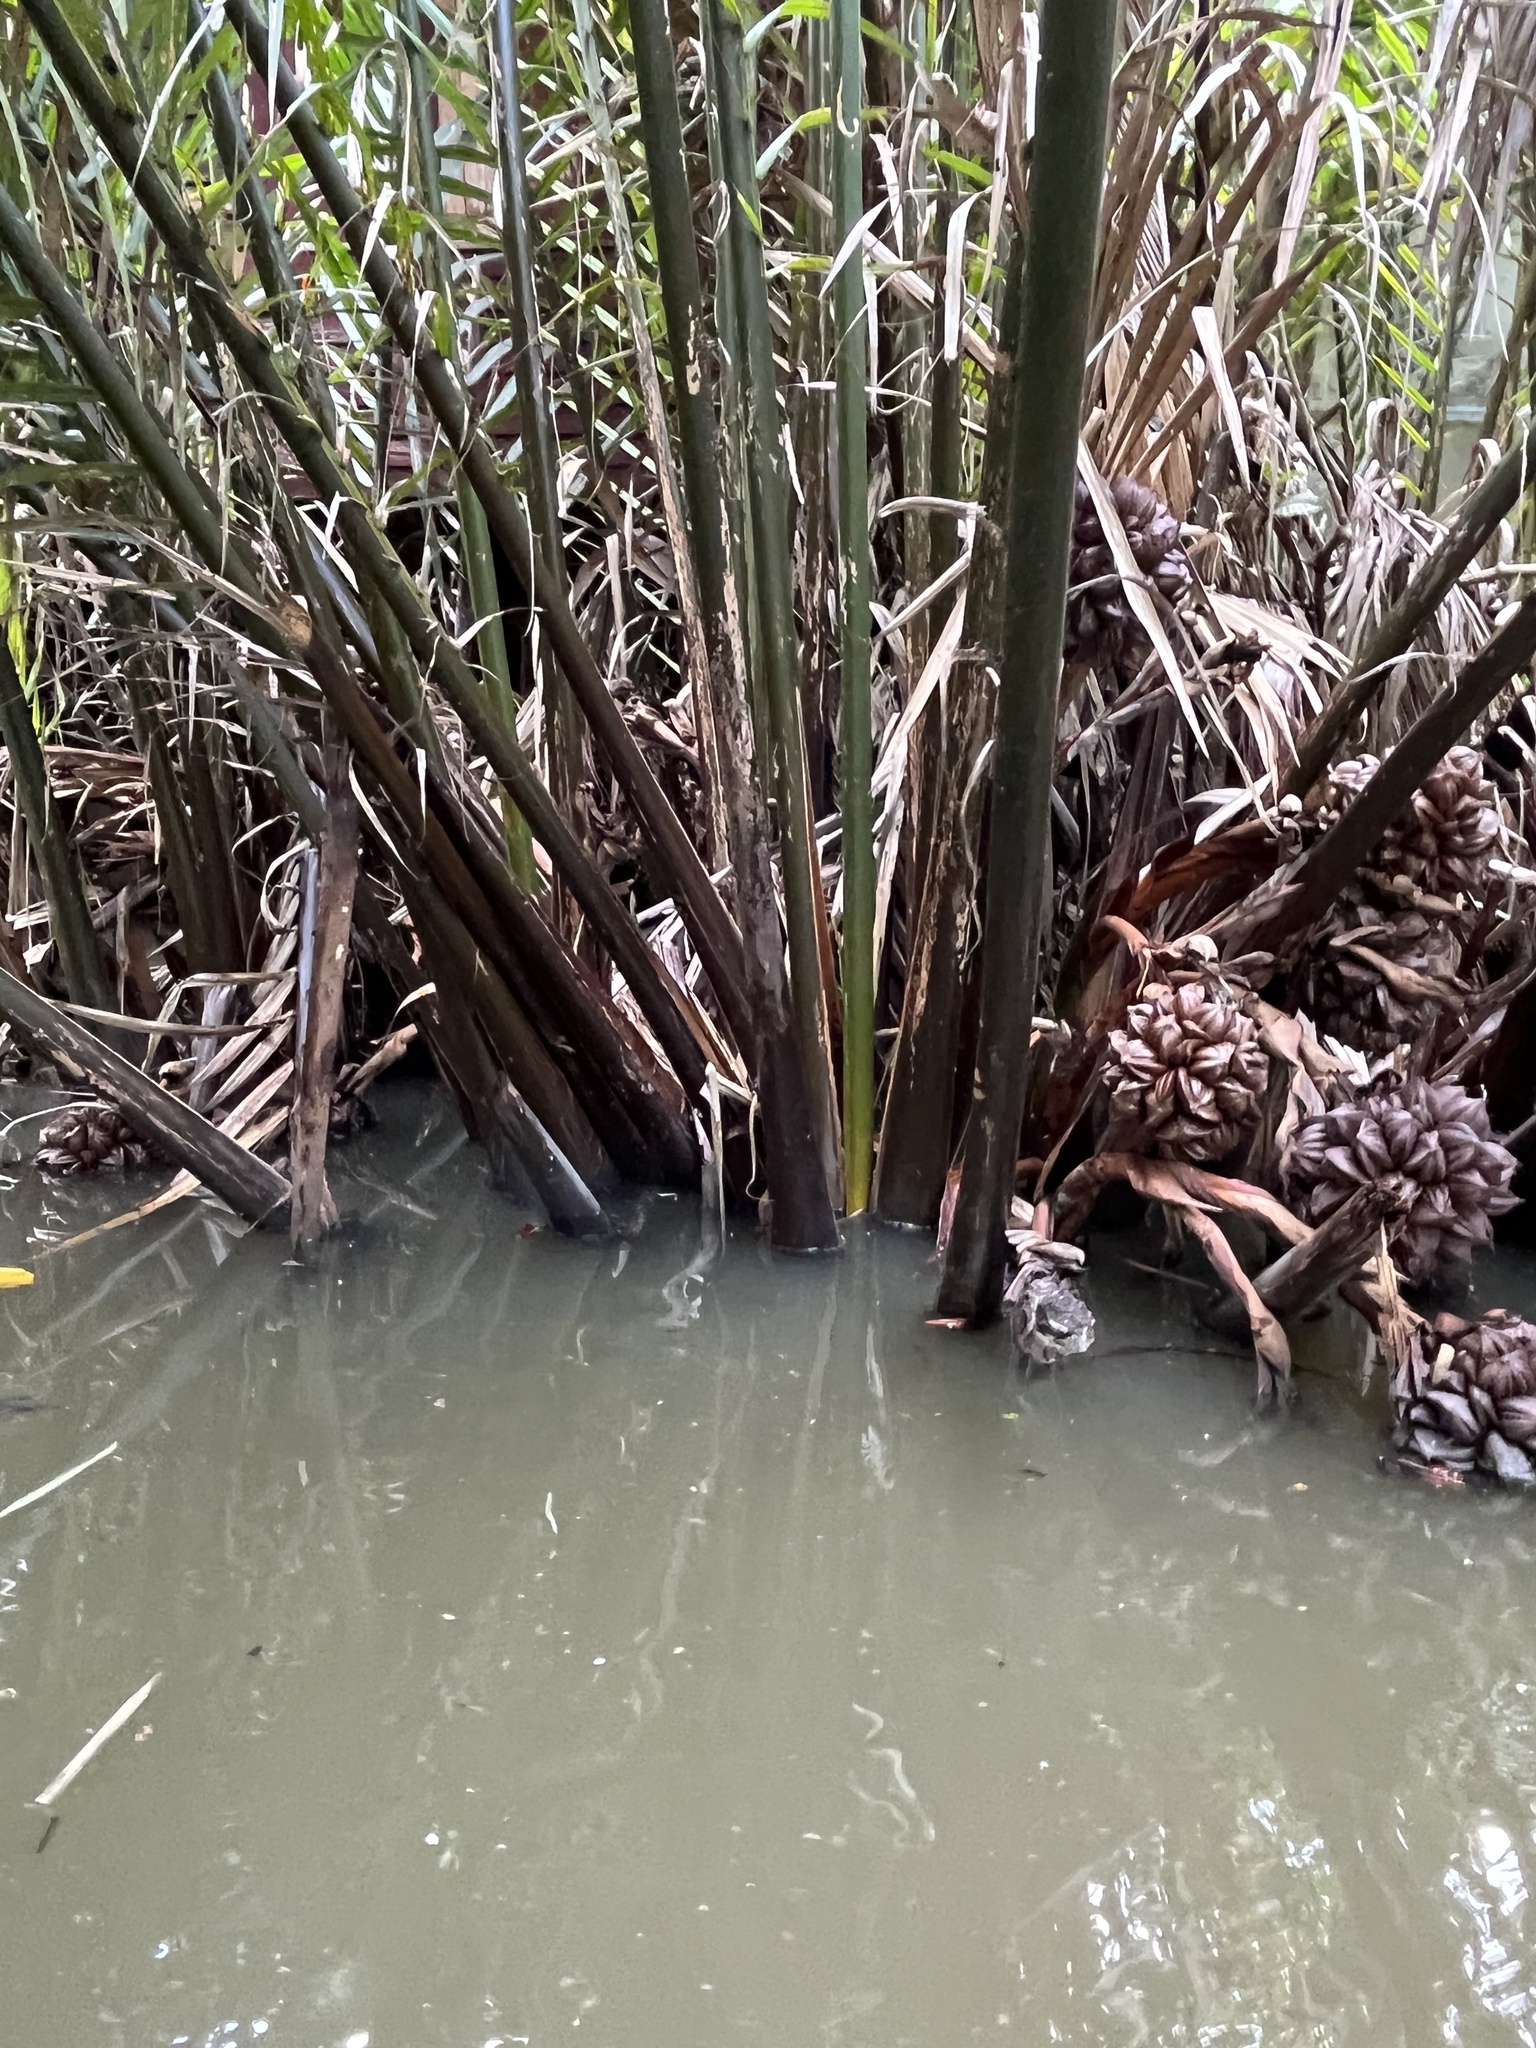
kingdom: Plantae
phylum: Tracheophyta
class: Liliopsida
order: Arecales
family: Arecaceae
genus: Nypa
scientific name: Nypa fruticans
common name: Mangrove palm
